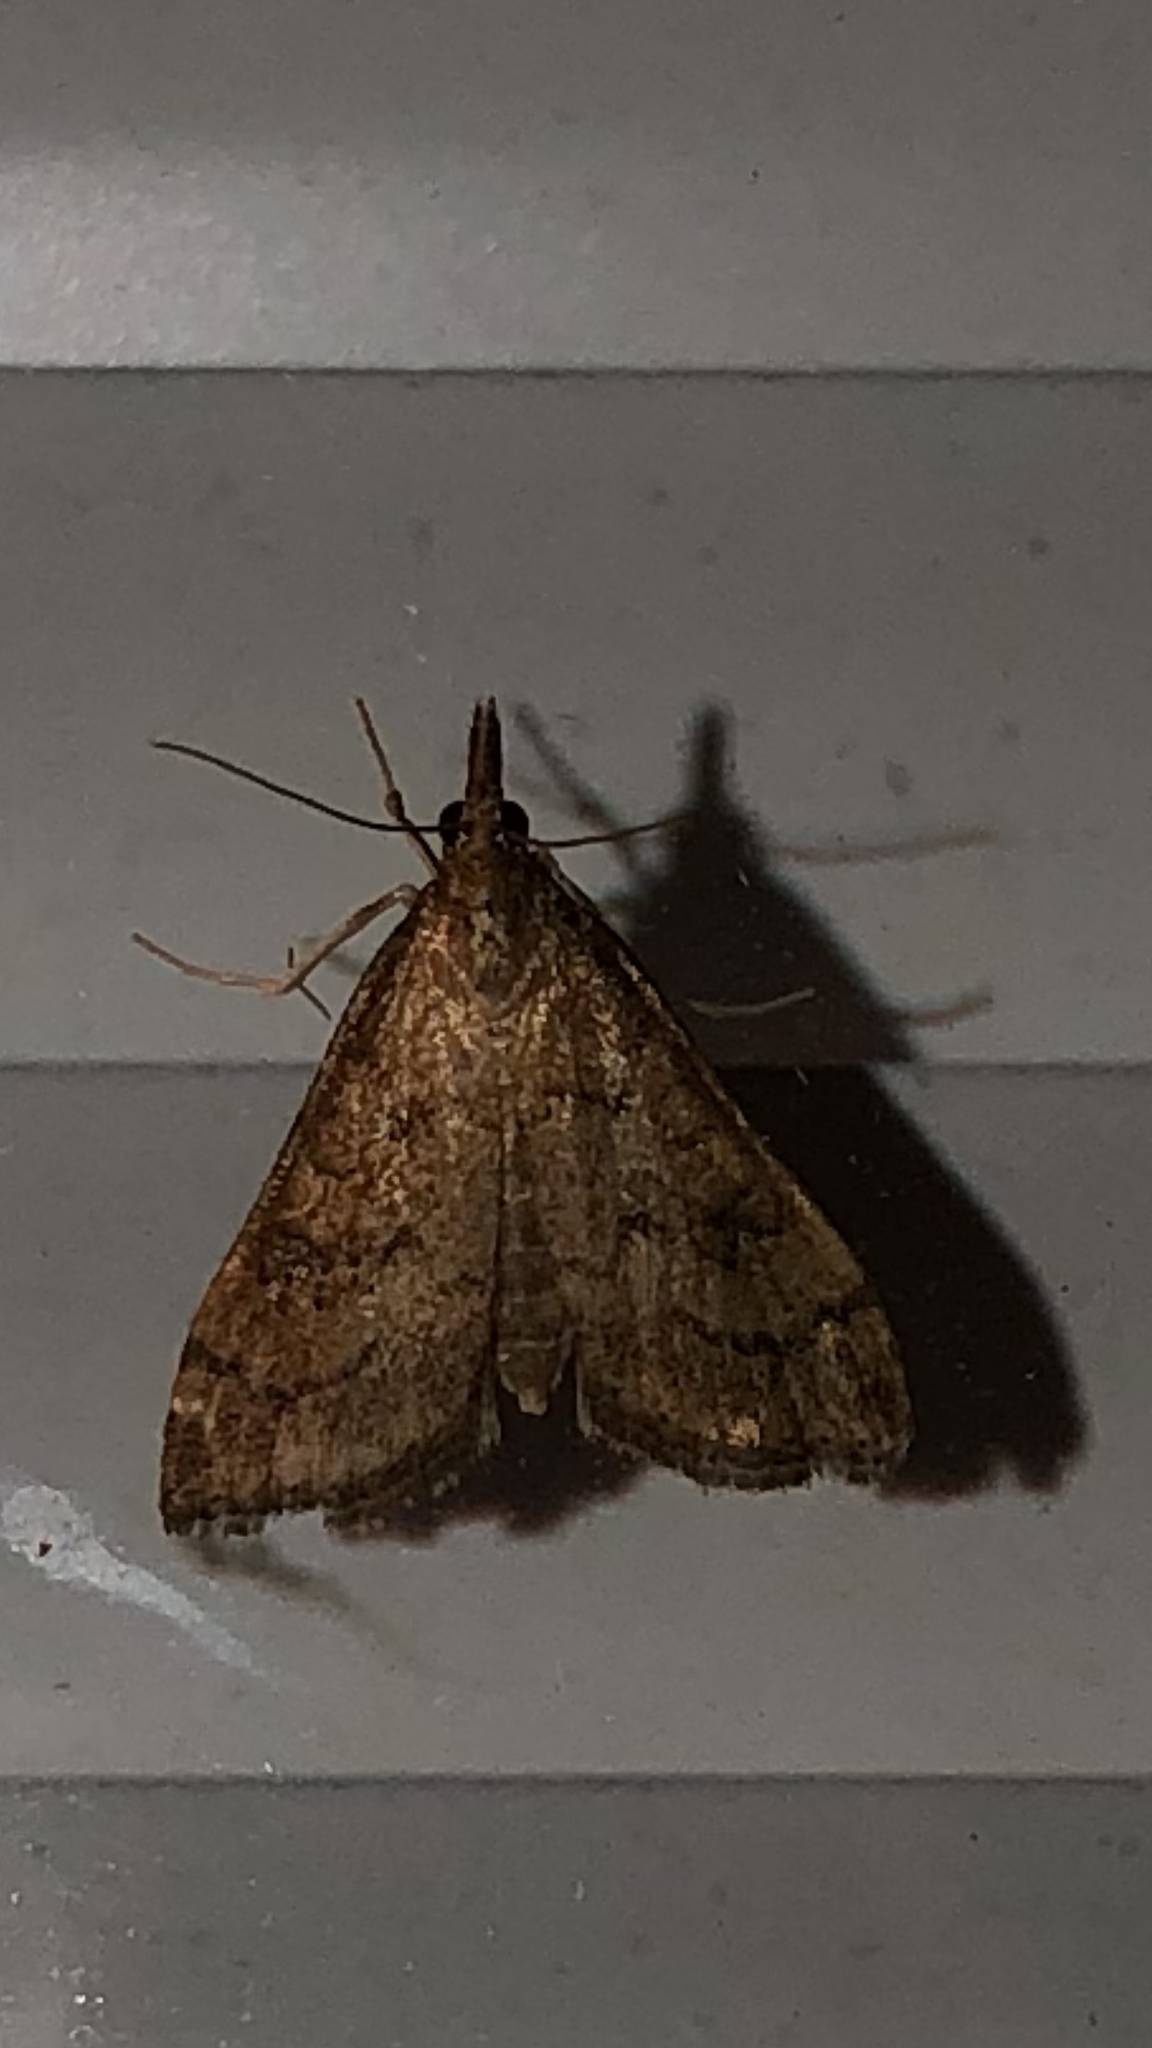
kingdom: Animalia
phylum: Arthropoda
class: Insecta
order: Lepidoptera
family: Crambidae
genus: Udea
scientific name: Udea rubigalis
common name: Celery leaftier moth
